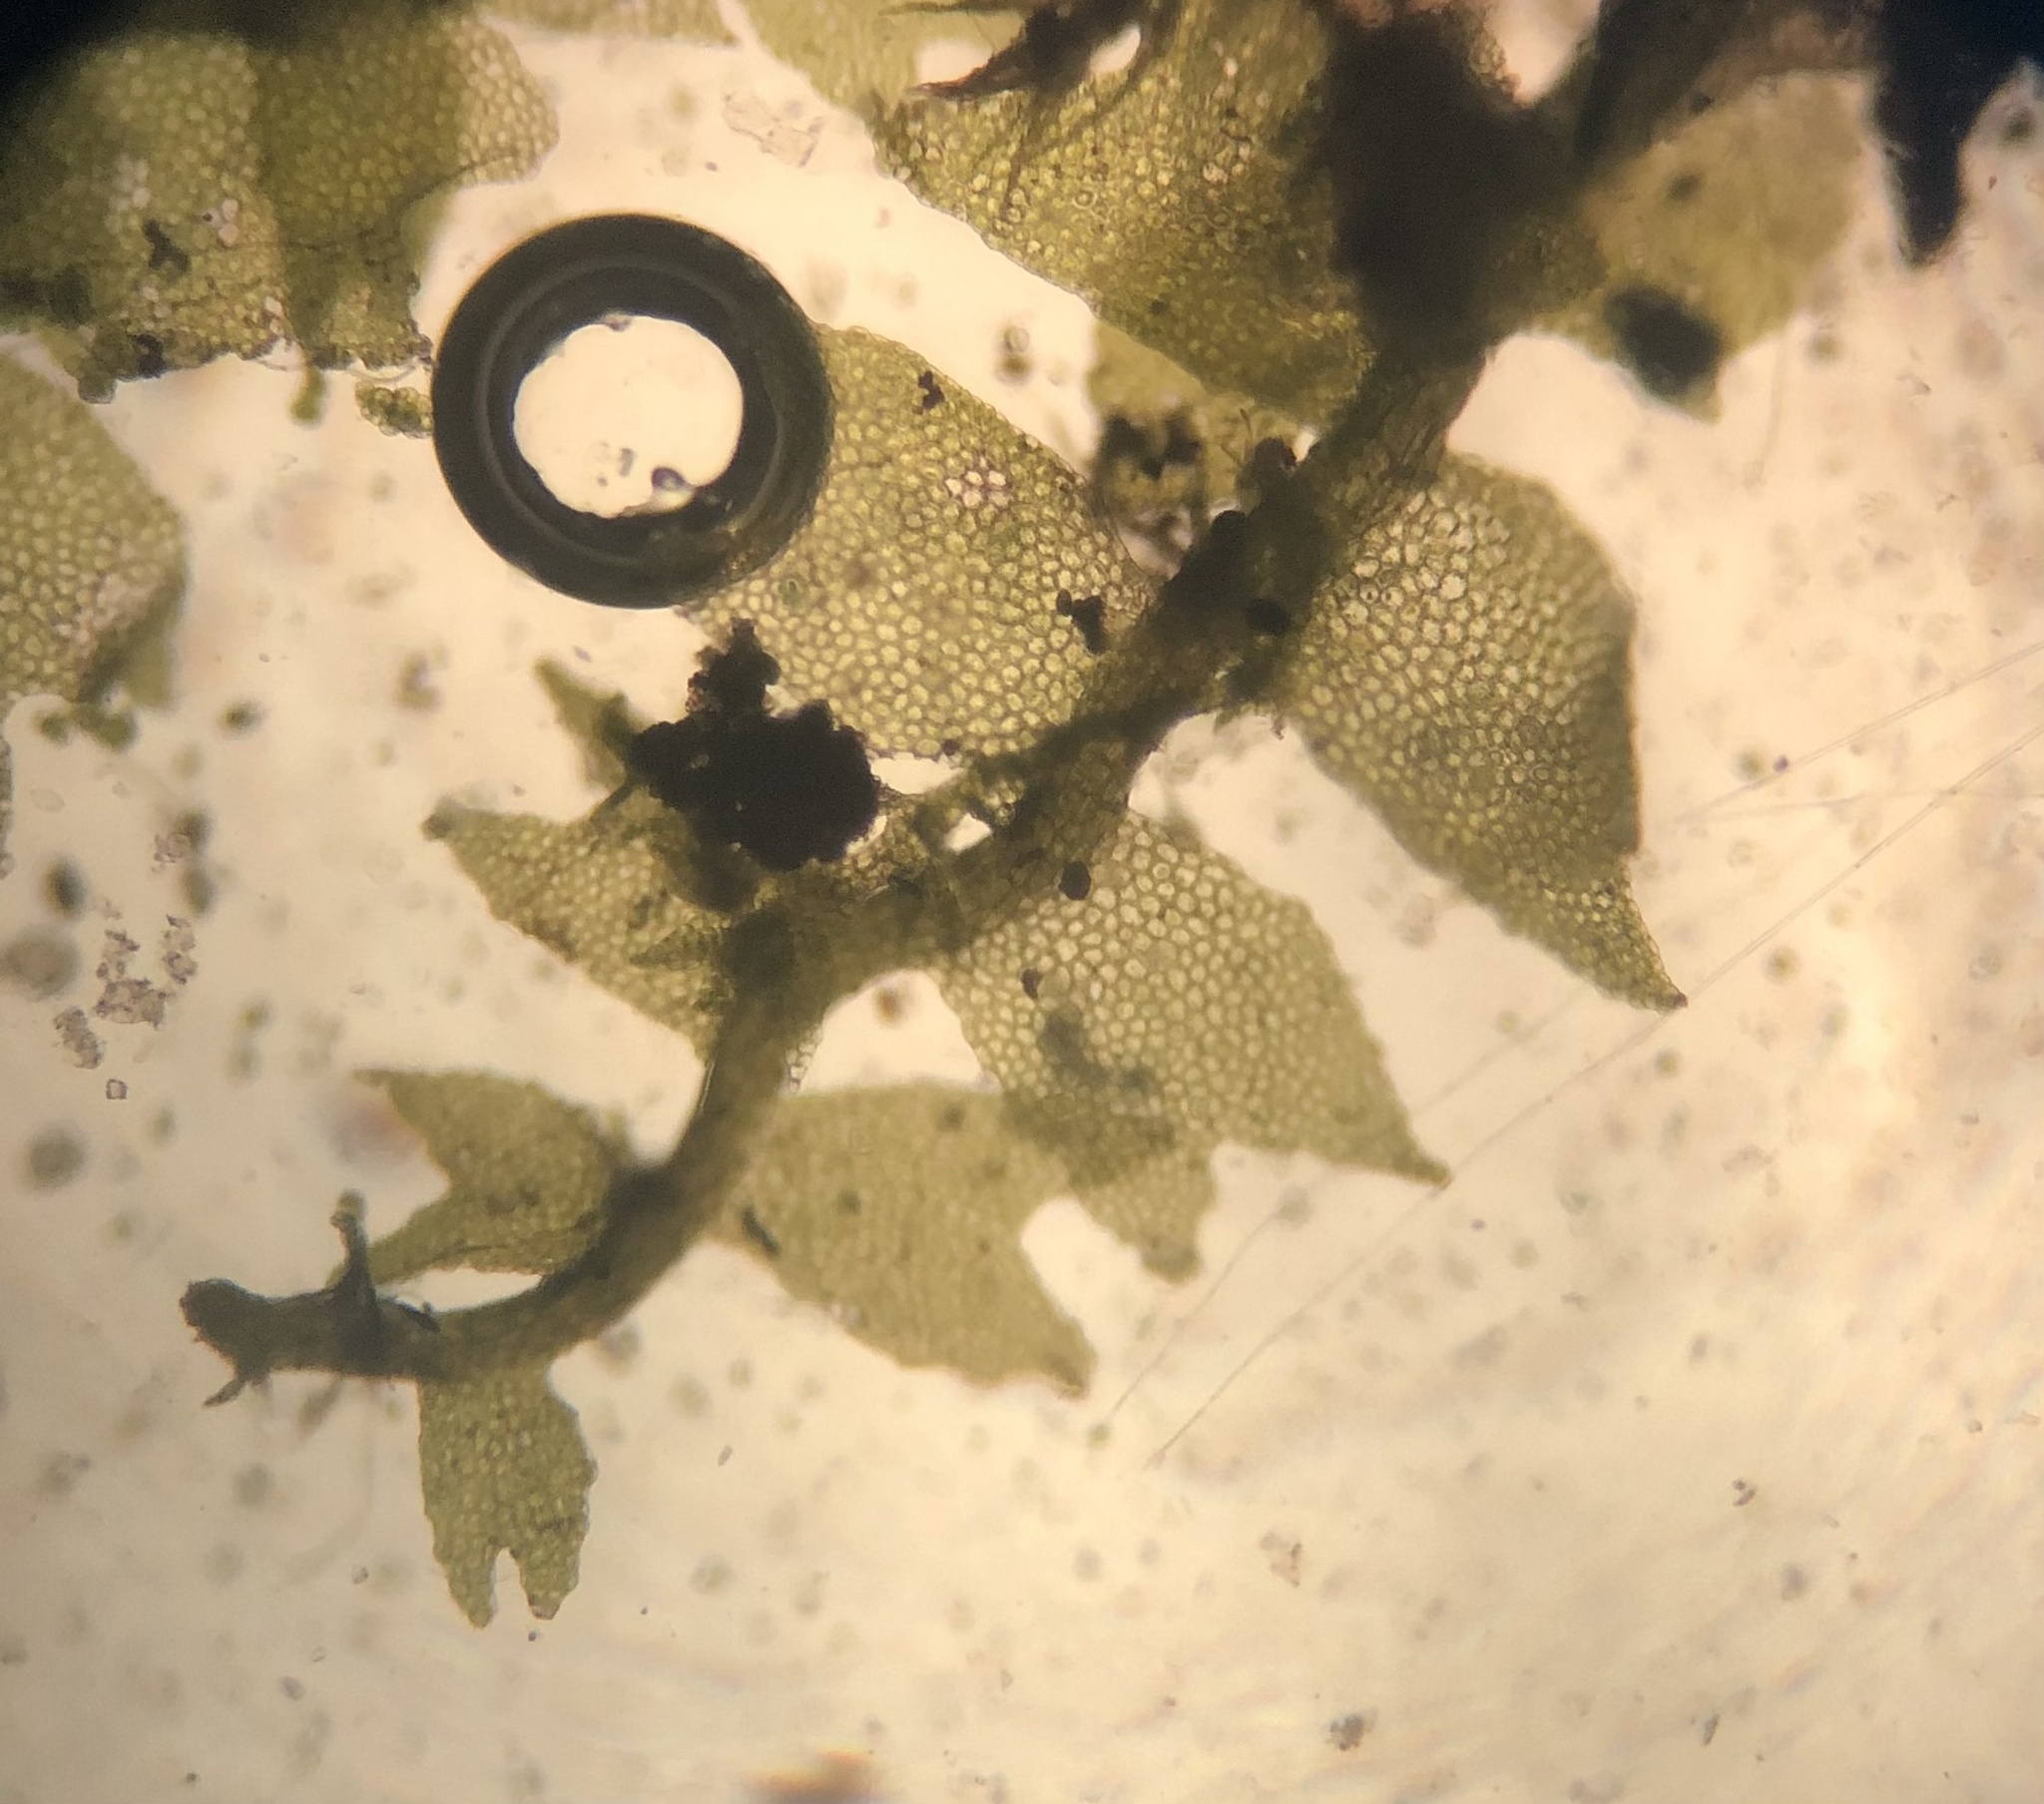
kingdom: Plantae
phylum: Marchantiophyta
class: Jungermanniopsida
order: Jungermanniales
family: Lophocoleaceae
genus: Lophocolea
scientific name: Lophocolea minor
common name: Lesser crestwort
